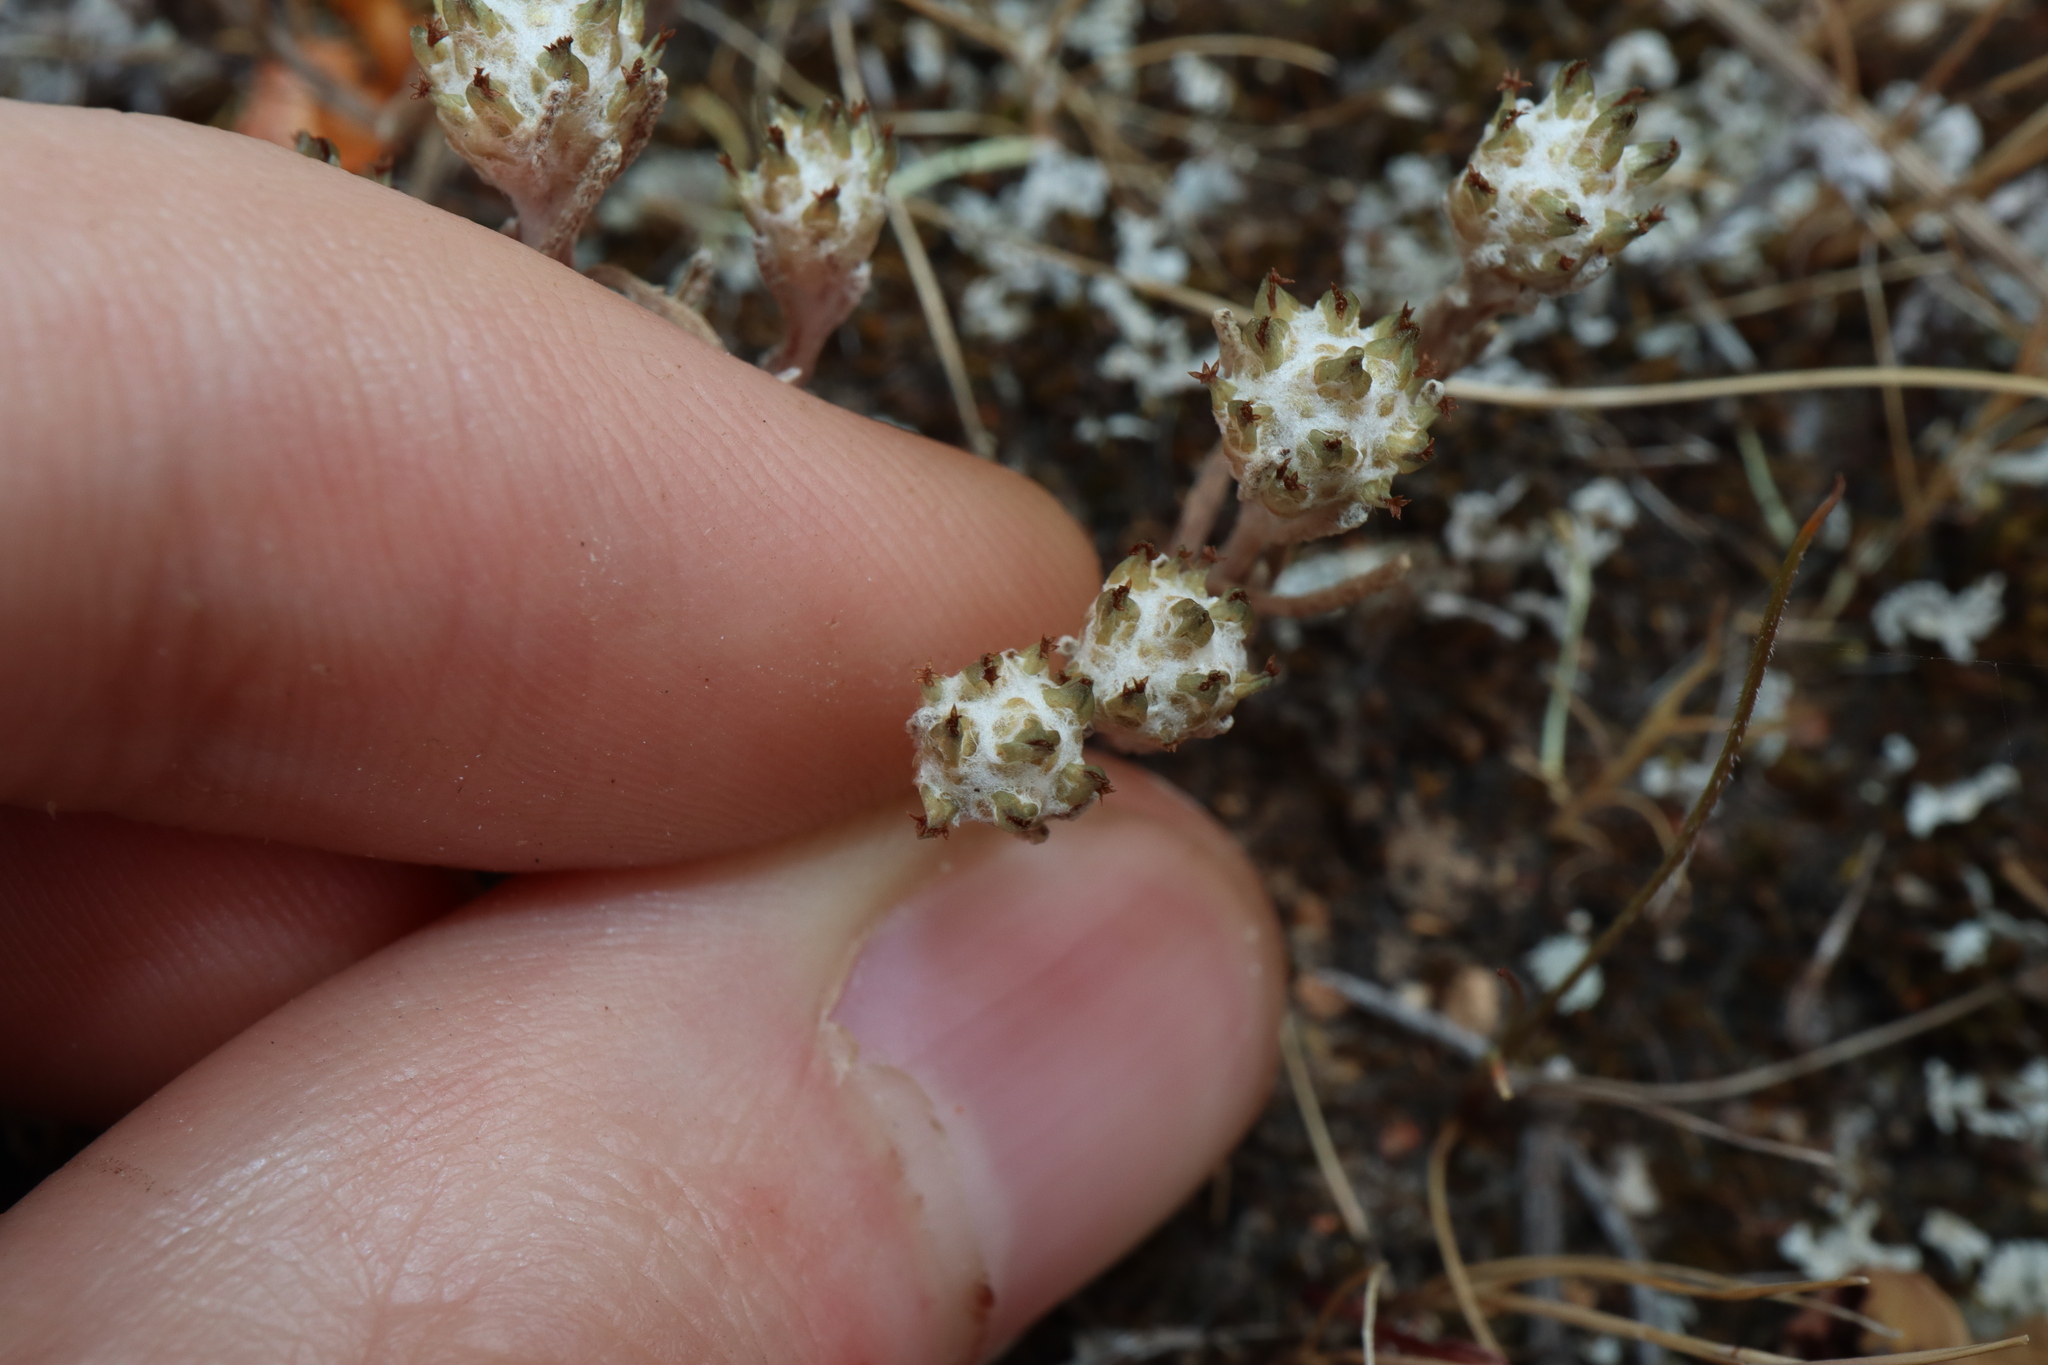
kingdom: Plantae
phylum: Tracheophyta
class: Magnoliopsida
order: Asterales
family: Asteraceae
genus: Blennospora
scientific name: Blennospora drummondii
